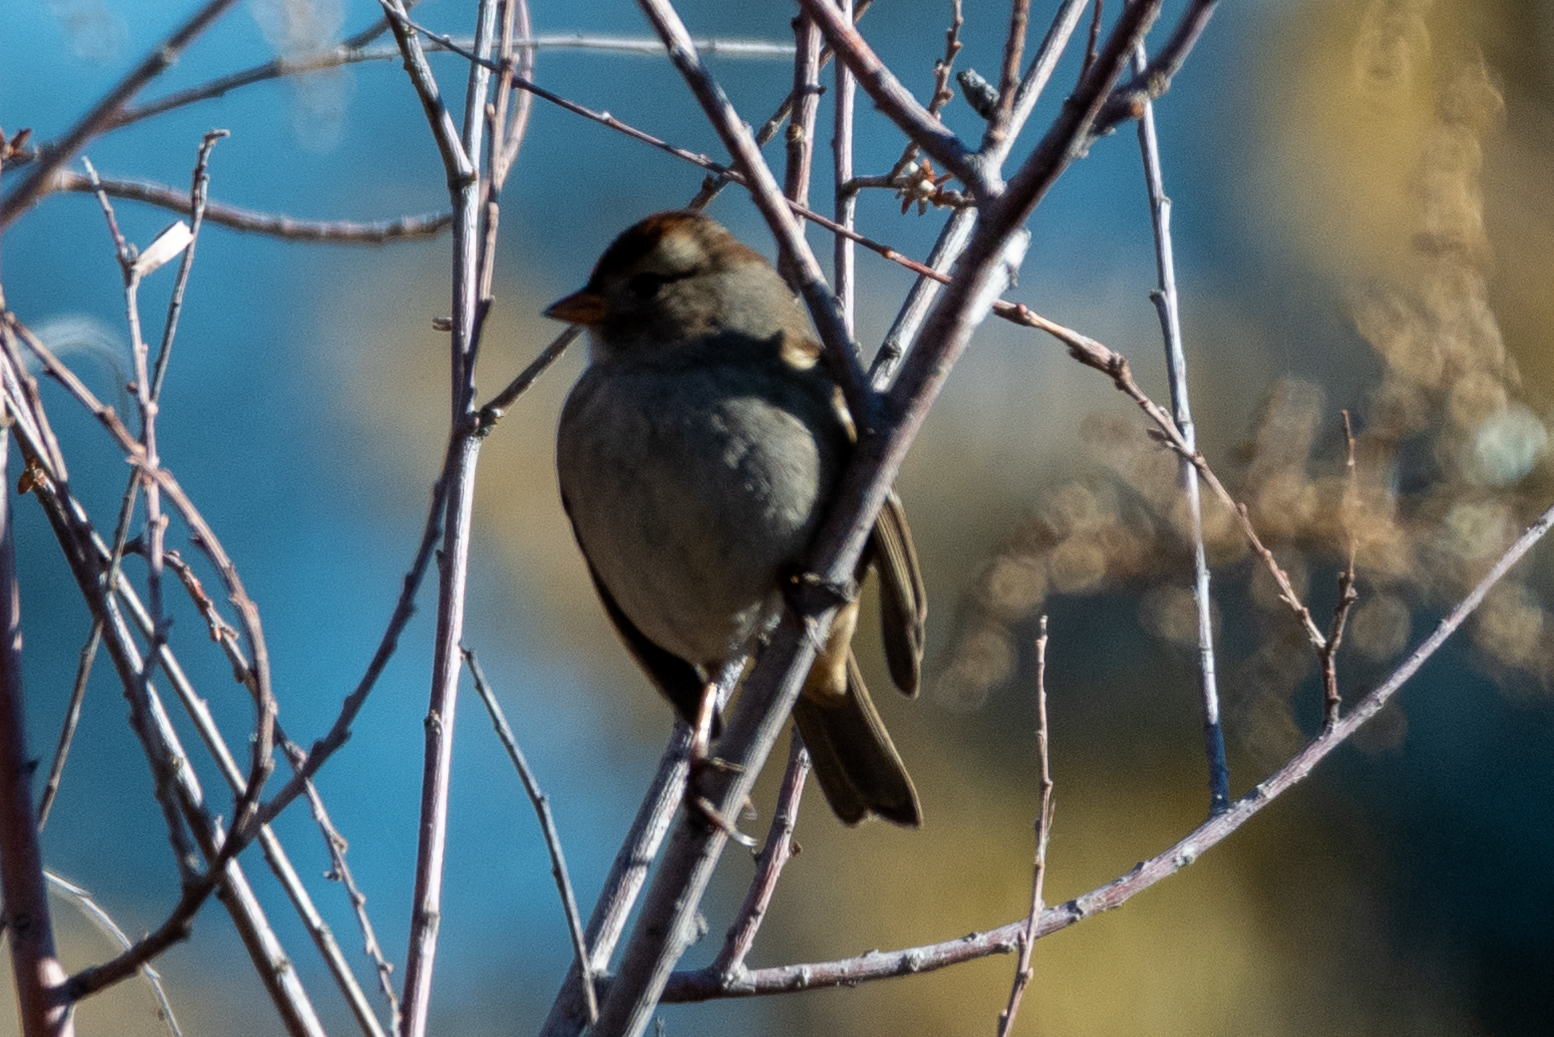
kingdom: Animalia
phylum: Chordata
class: Aves
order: Passeriformes
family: Passerellidae
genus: Zonotrichia
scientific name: Zonotrichia atricapilla
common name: Golden-crowned sparrow
